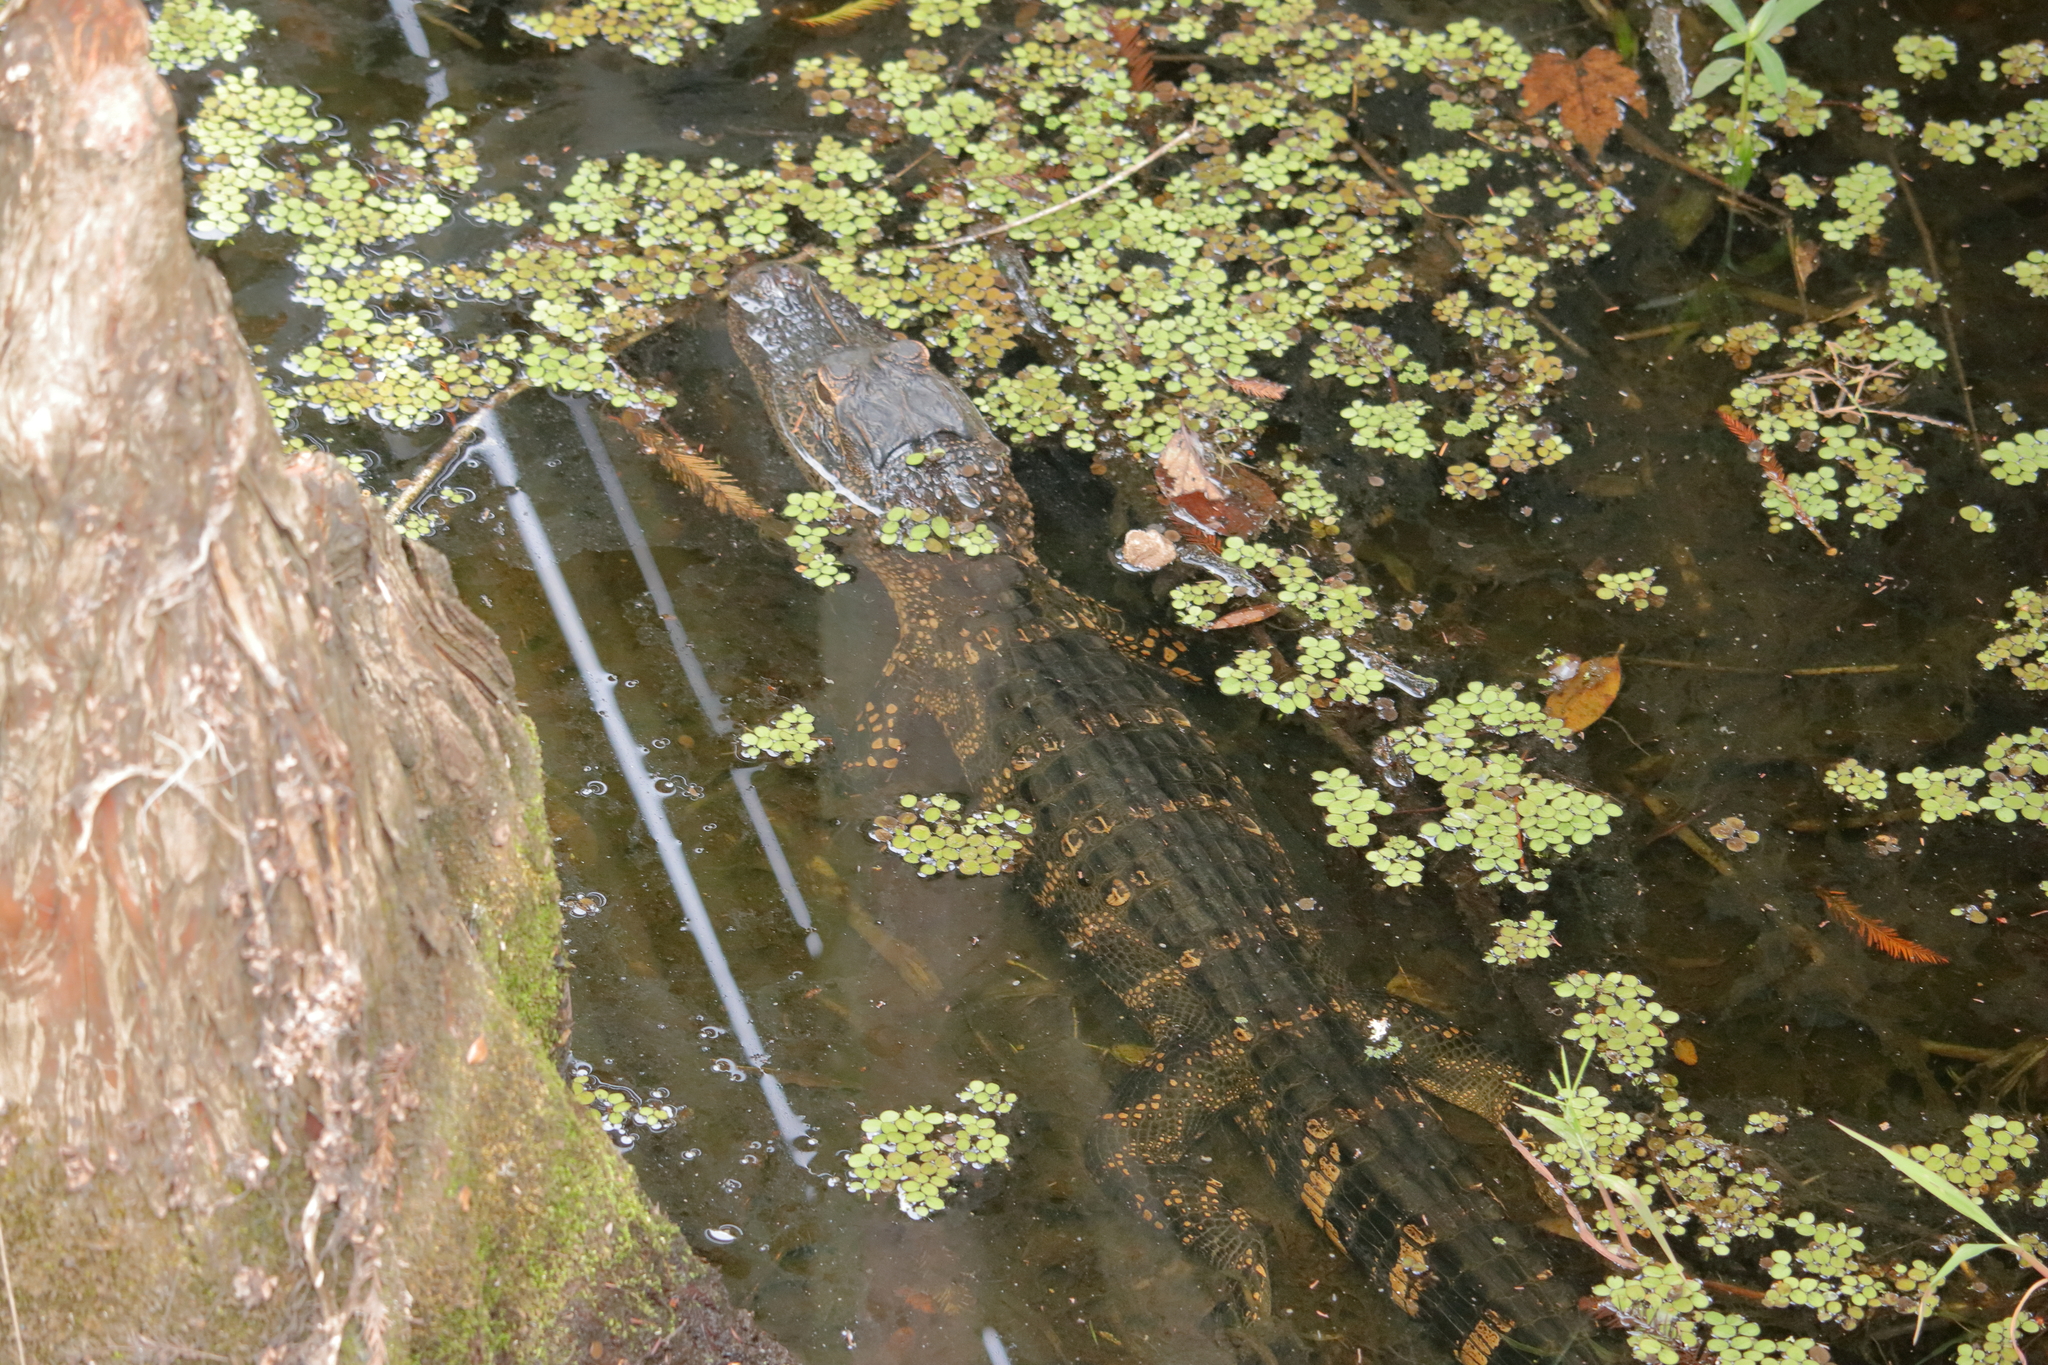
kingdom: Animalia
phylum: Chordata
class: Crocodylia
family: Alligatoridae
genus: Alligator
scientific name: Alligator mississippiensis
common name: American alligator
